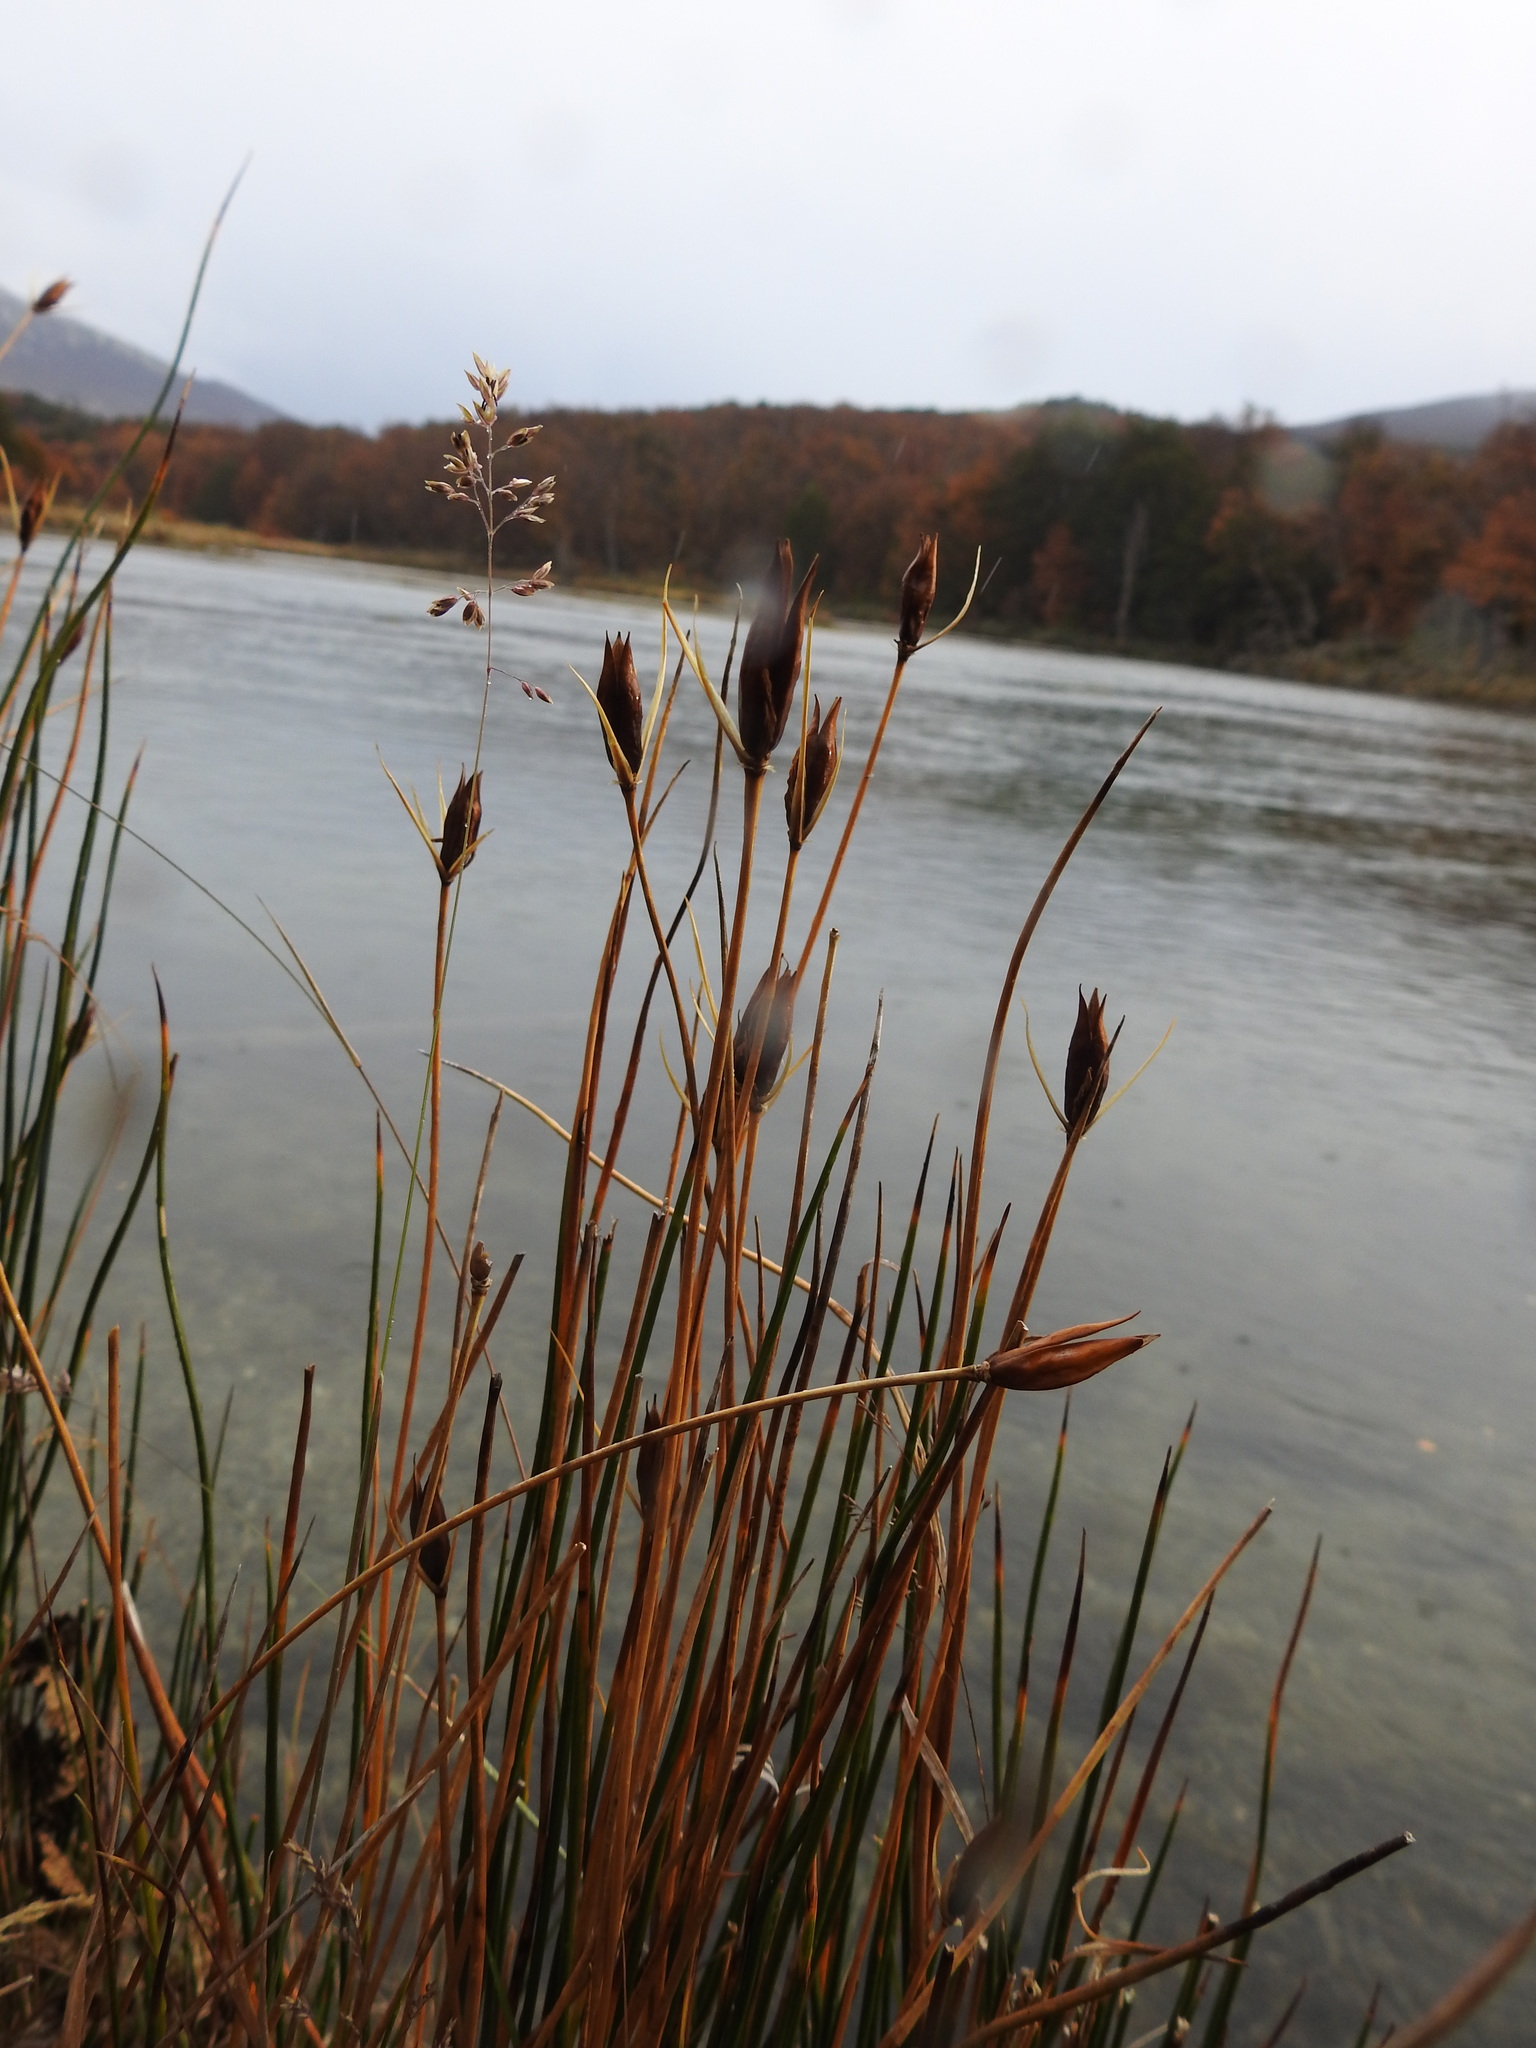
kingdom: Plantae
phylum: Tracheophyta
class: Liliopsida
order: Poales
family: Juncaceae
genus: Marsippospermum
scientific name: Marsippospermum grandiflorum
